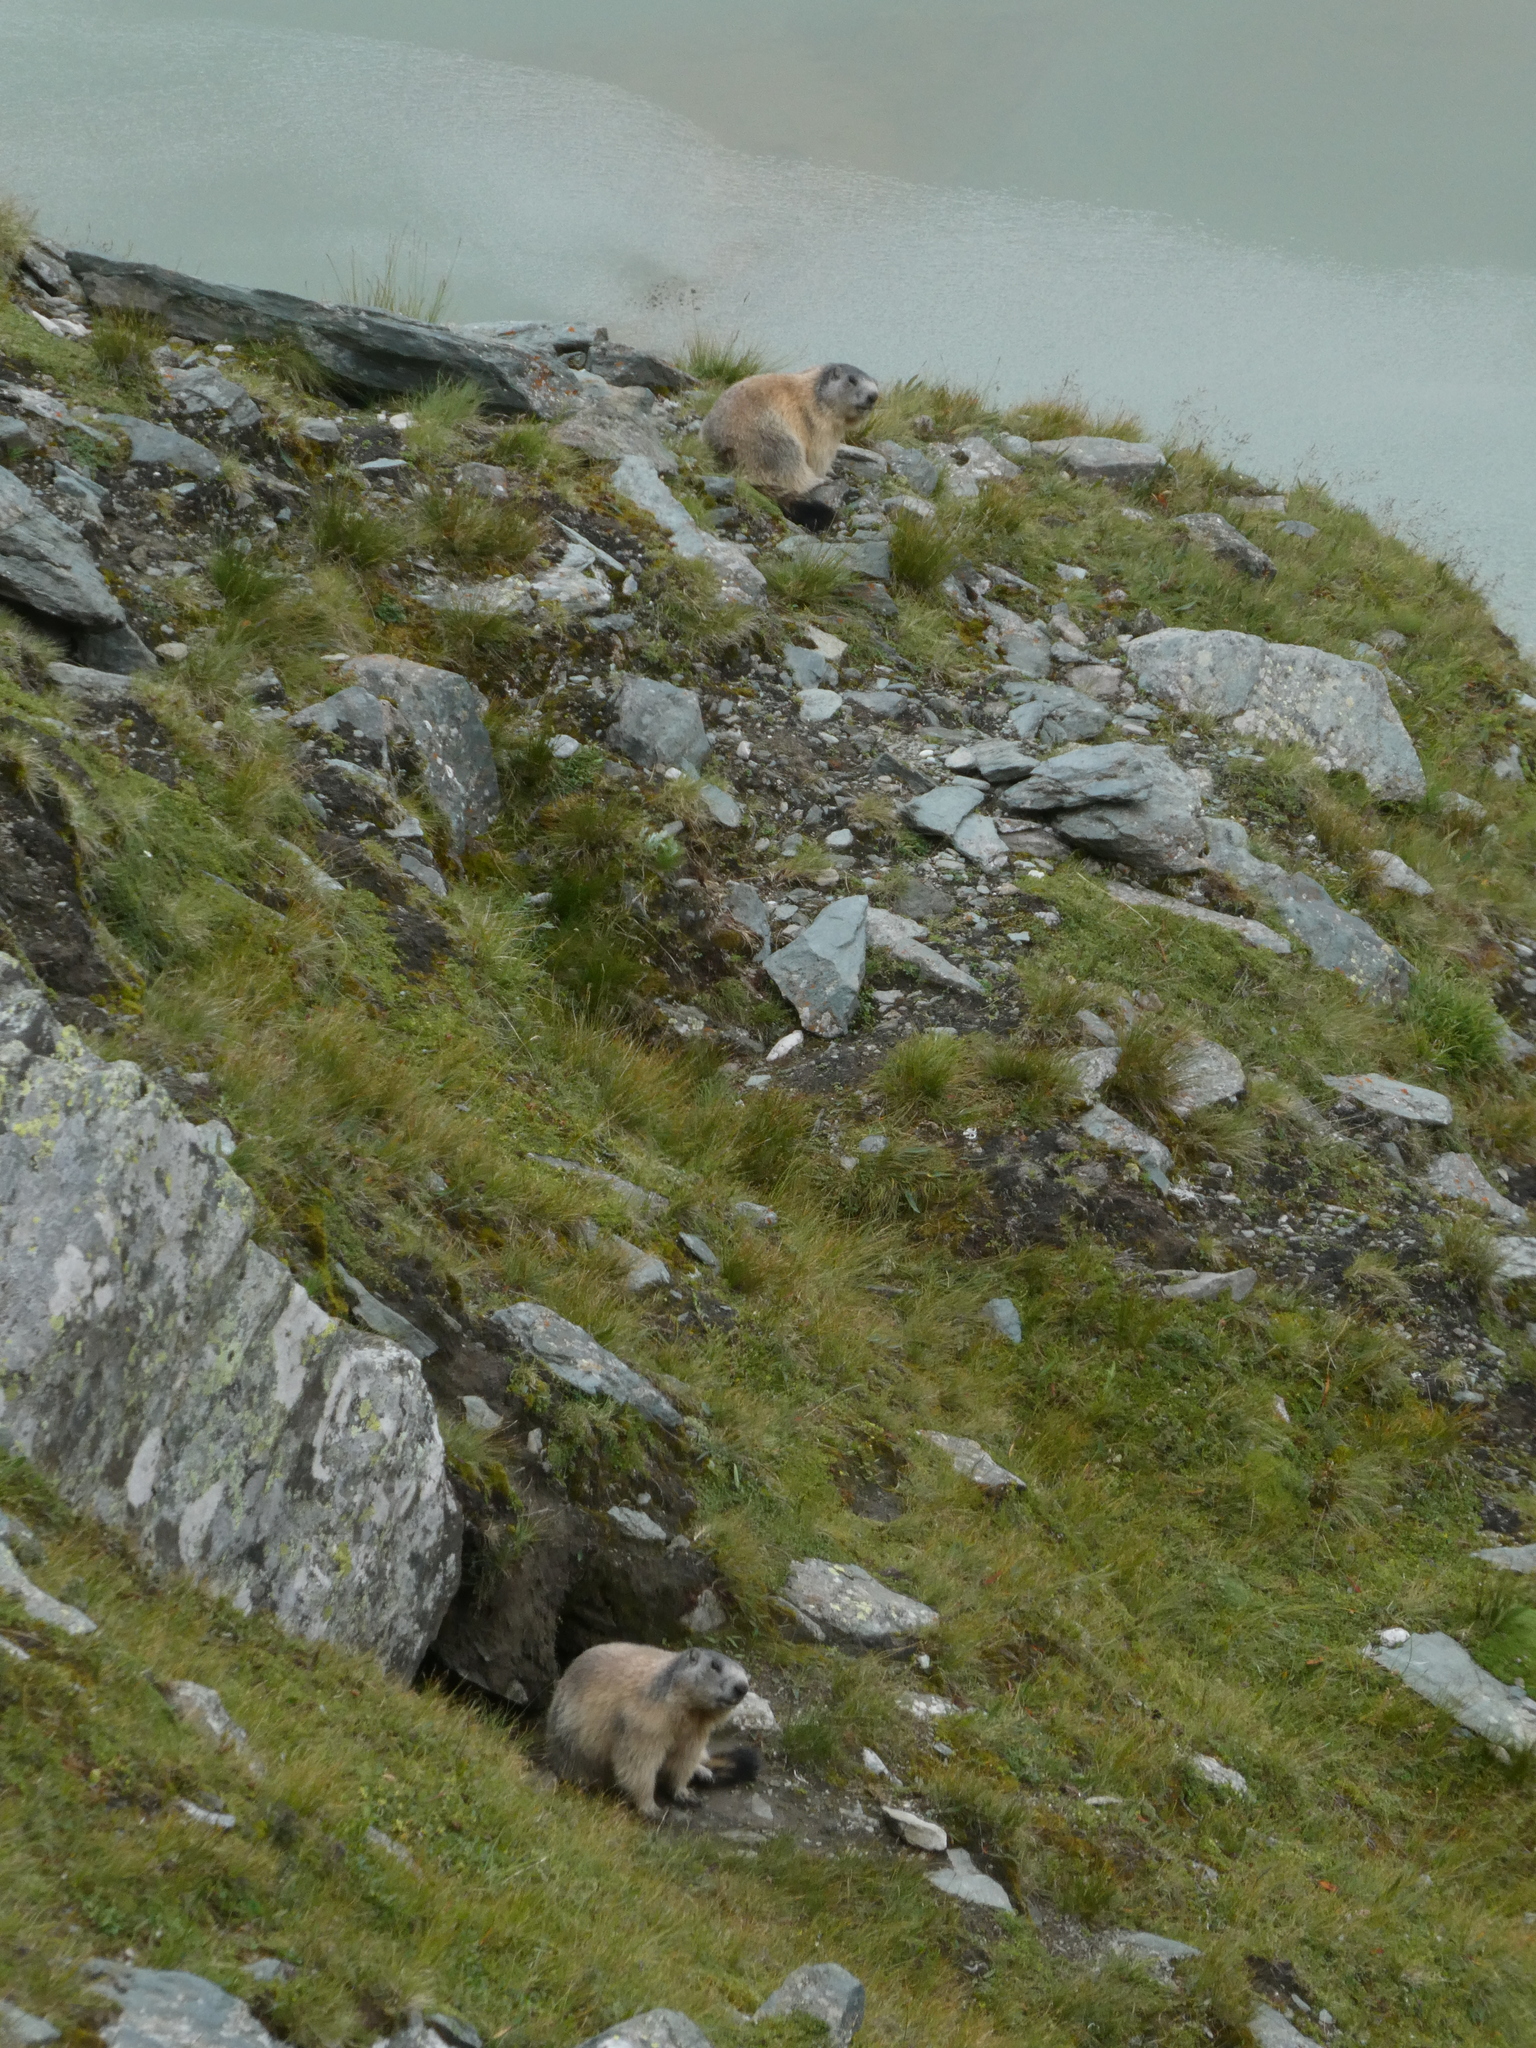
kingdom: Animalia
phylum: Chordata
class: Mammalia
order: Rodentia
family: Sciuridae
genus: Marmota
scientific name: Marmota marmota
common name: Alpine marmot
